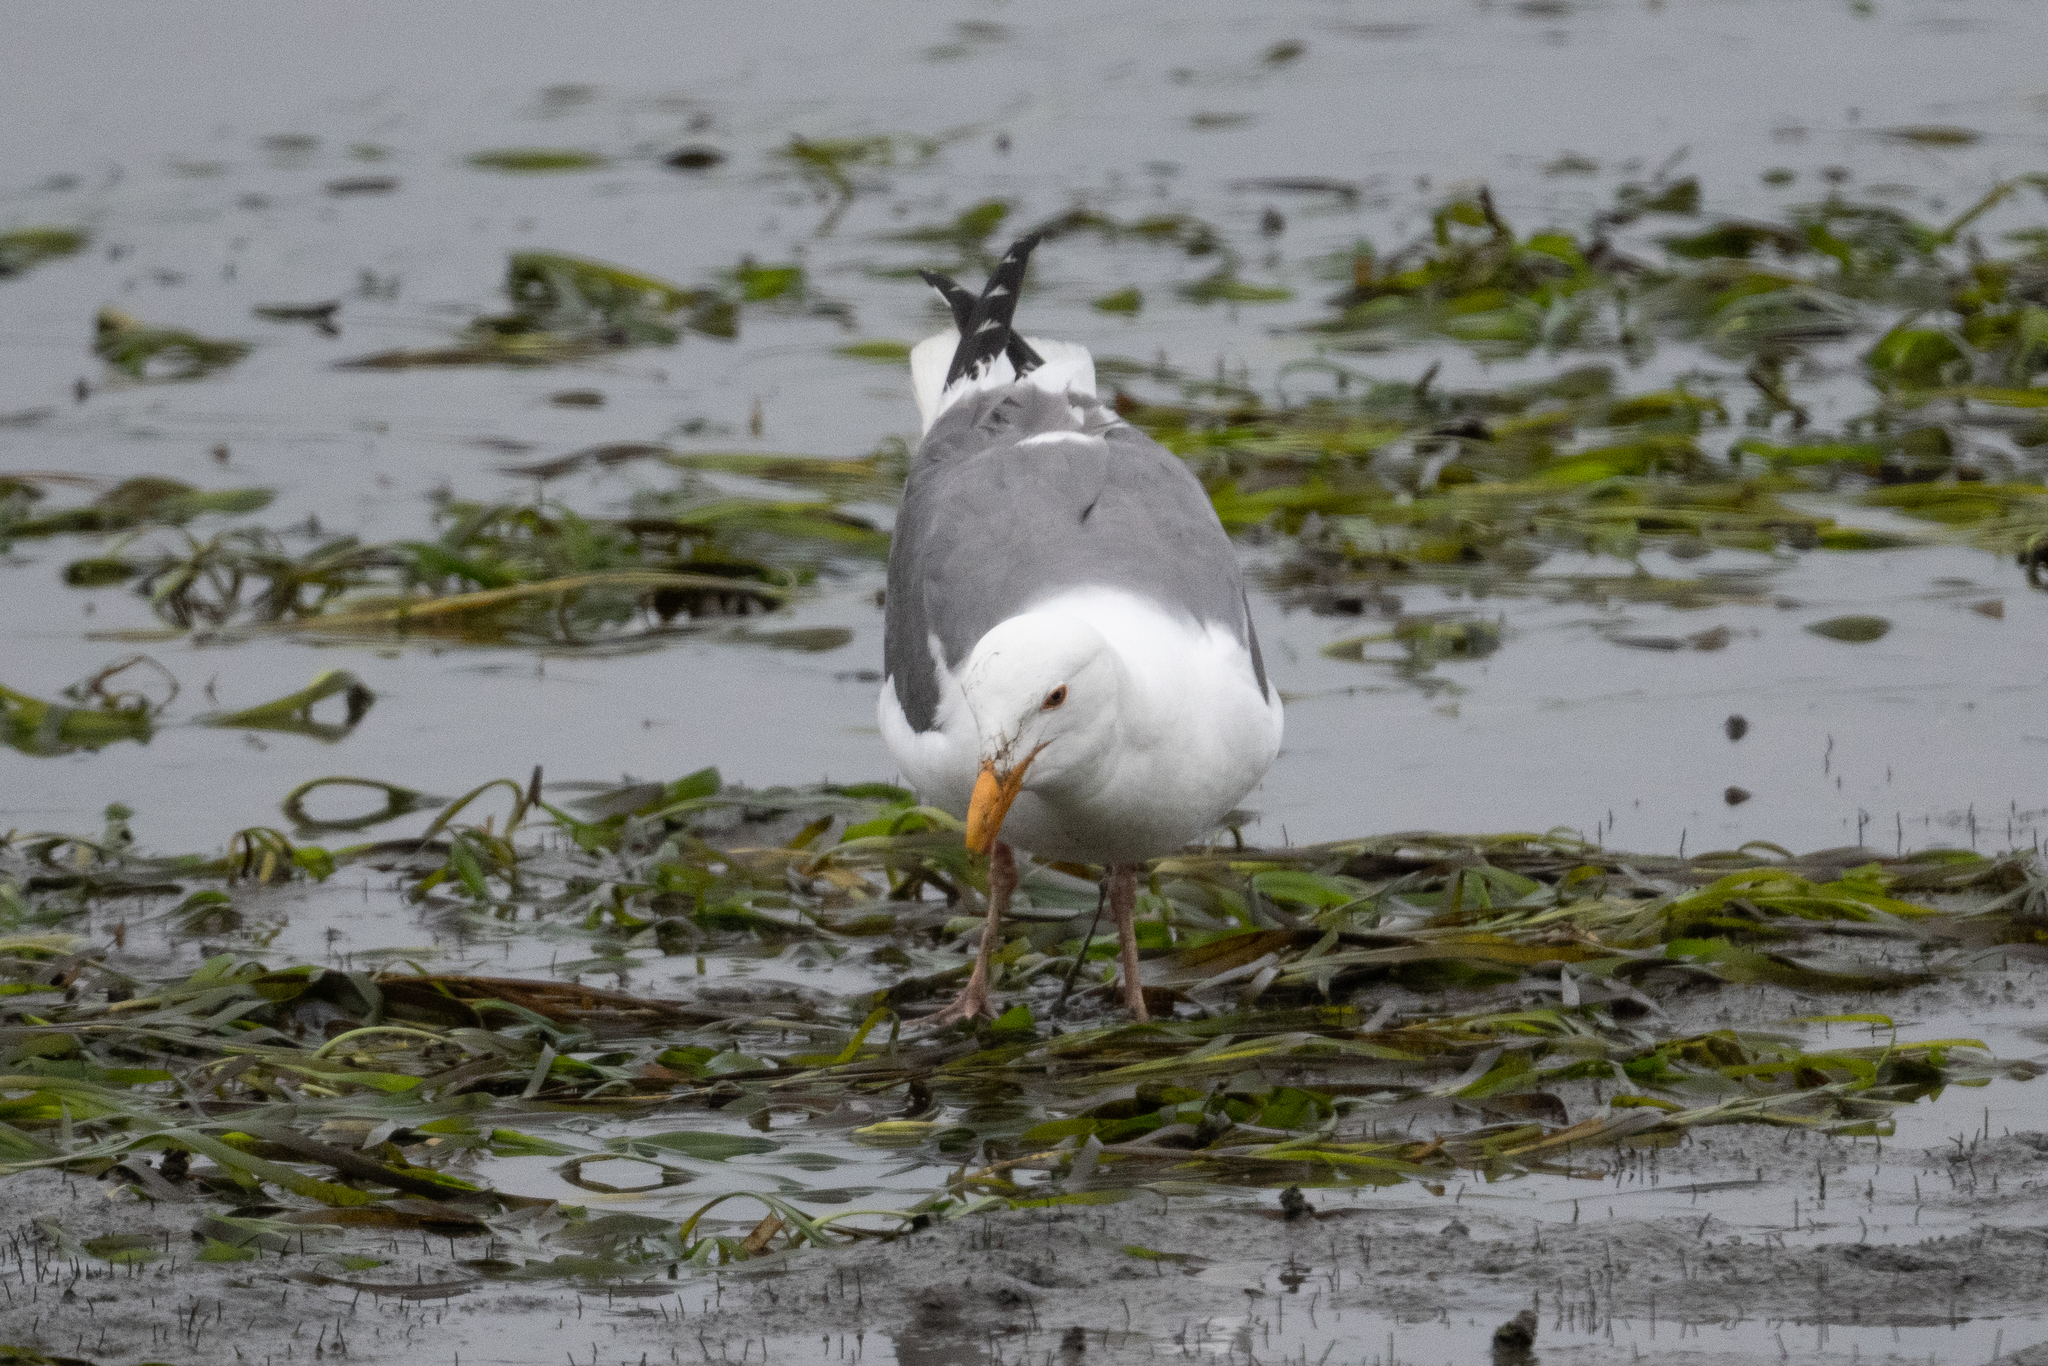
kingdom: Animalia
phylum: Chordata
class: Aves
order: Charadriiformes
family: Laridae
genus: Larus
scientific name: Larus occidentalis
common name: Western gull
